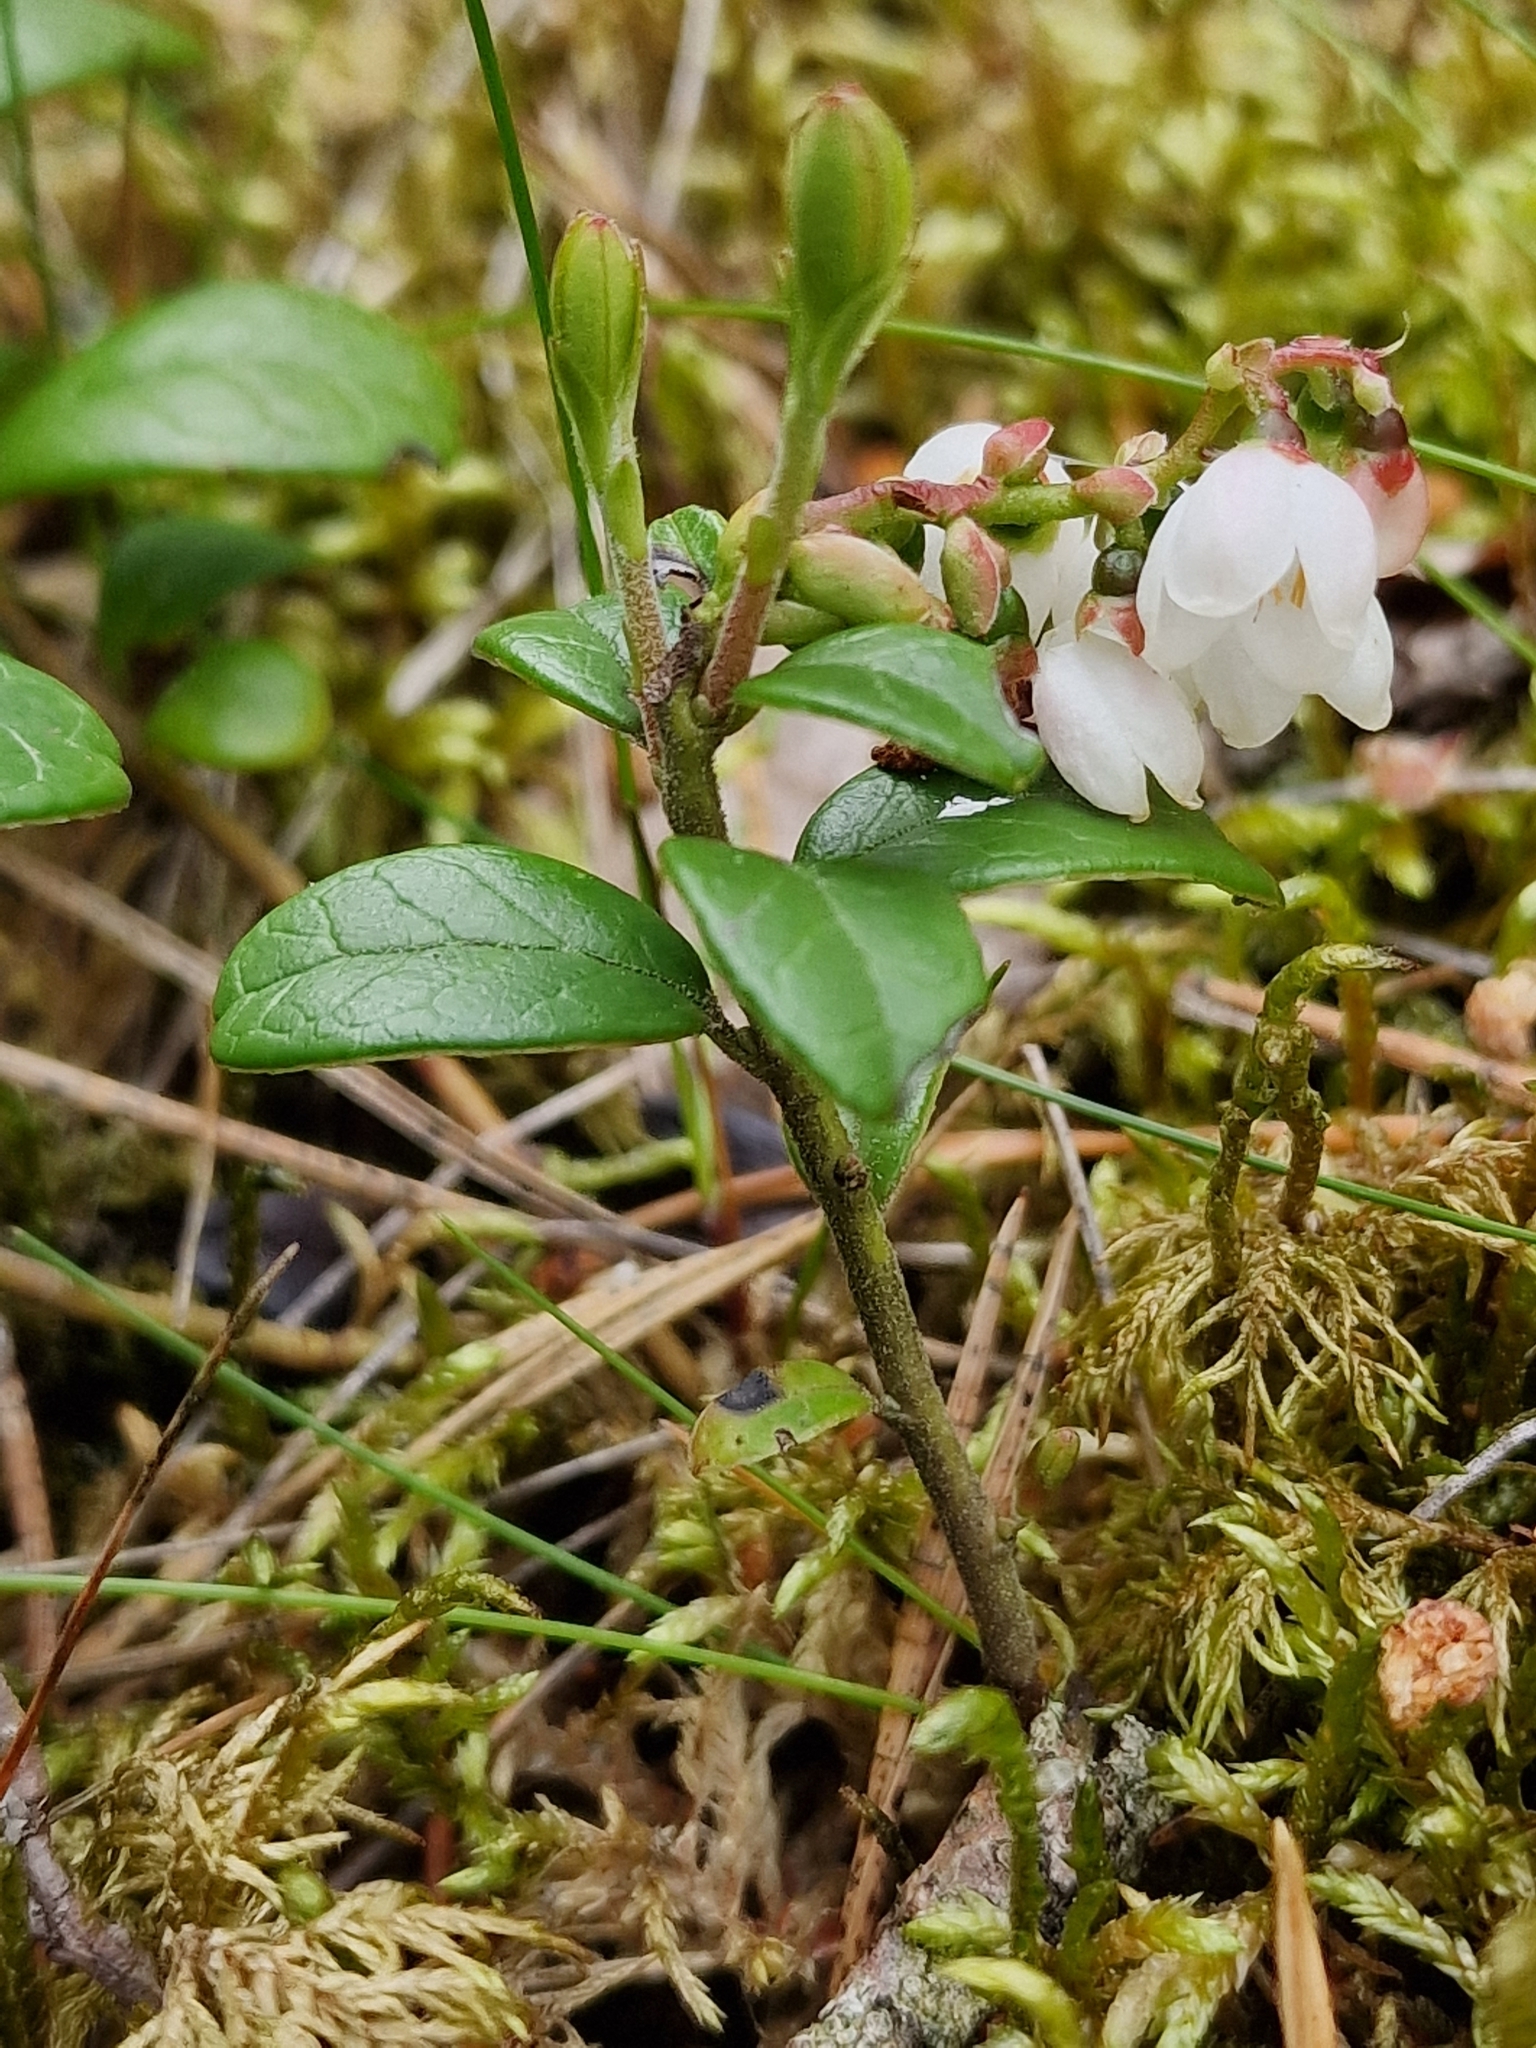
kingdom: Plantae
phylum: Tracheophyta
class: Magnoliopsida
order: Ericales
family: Ericaceae
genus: Vaccinium
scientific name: Vaccinium vitis-idaea
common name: Cowberry
